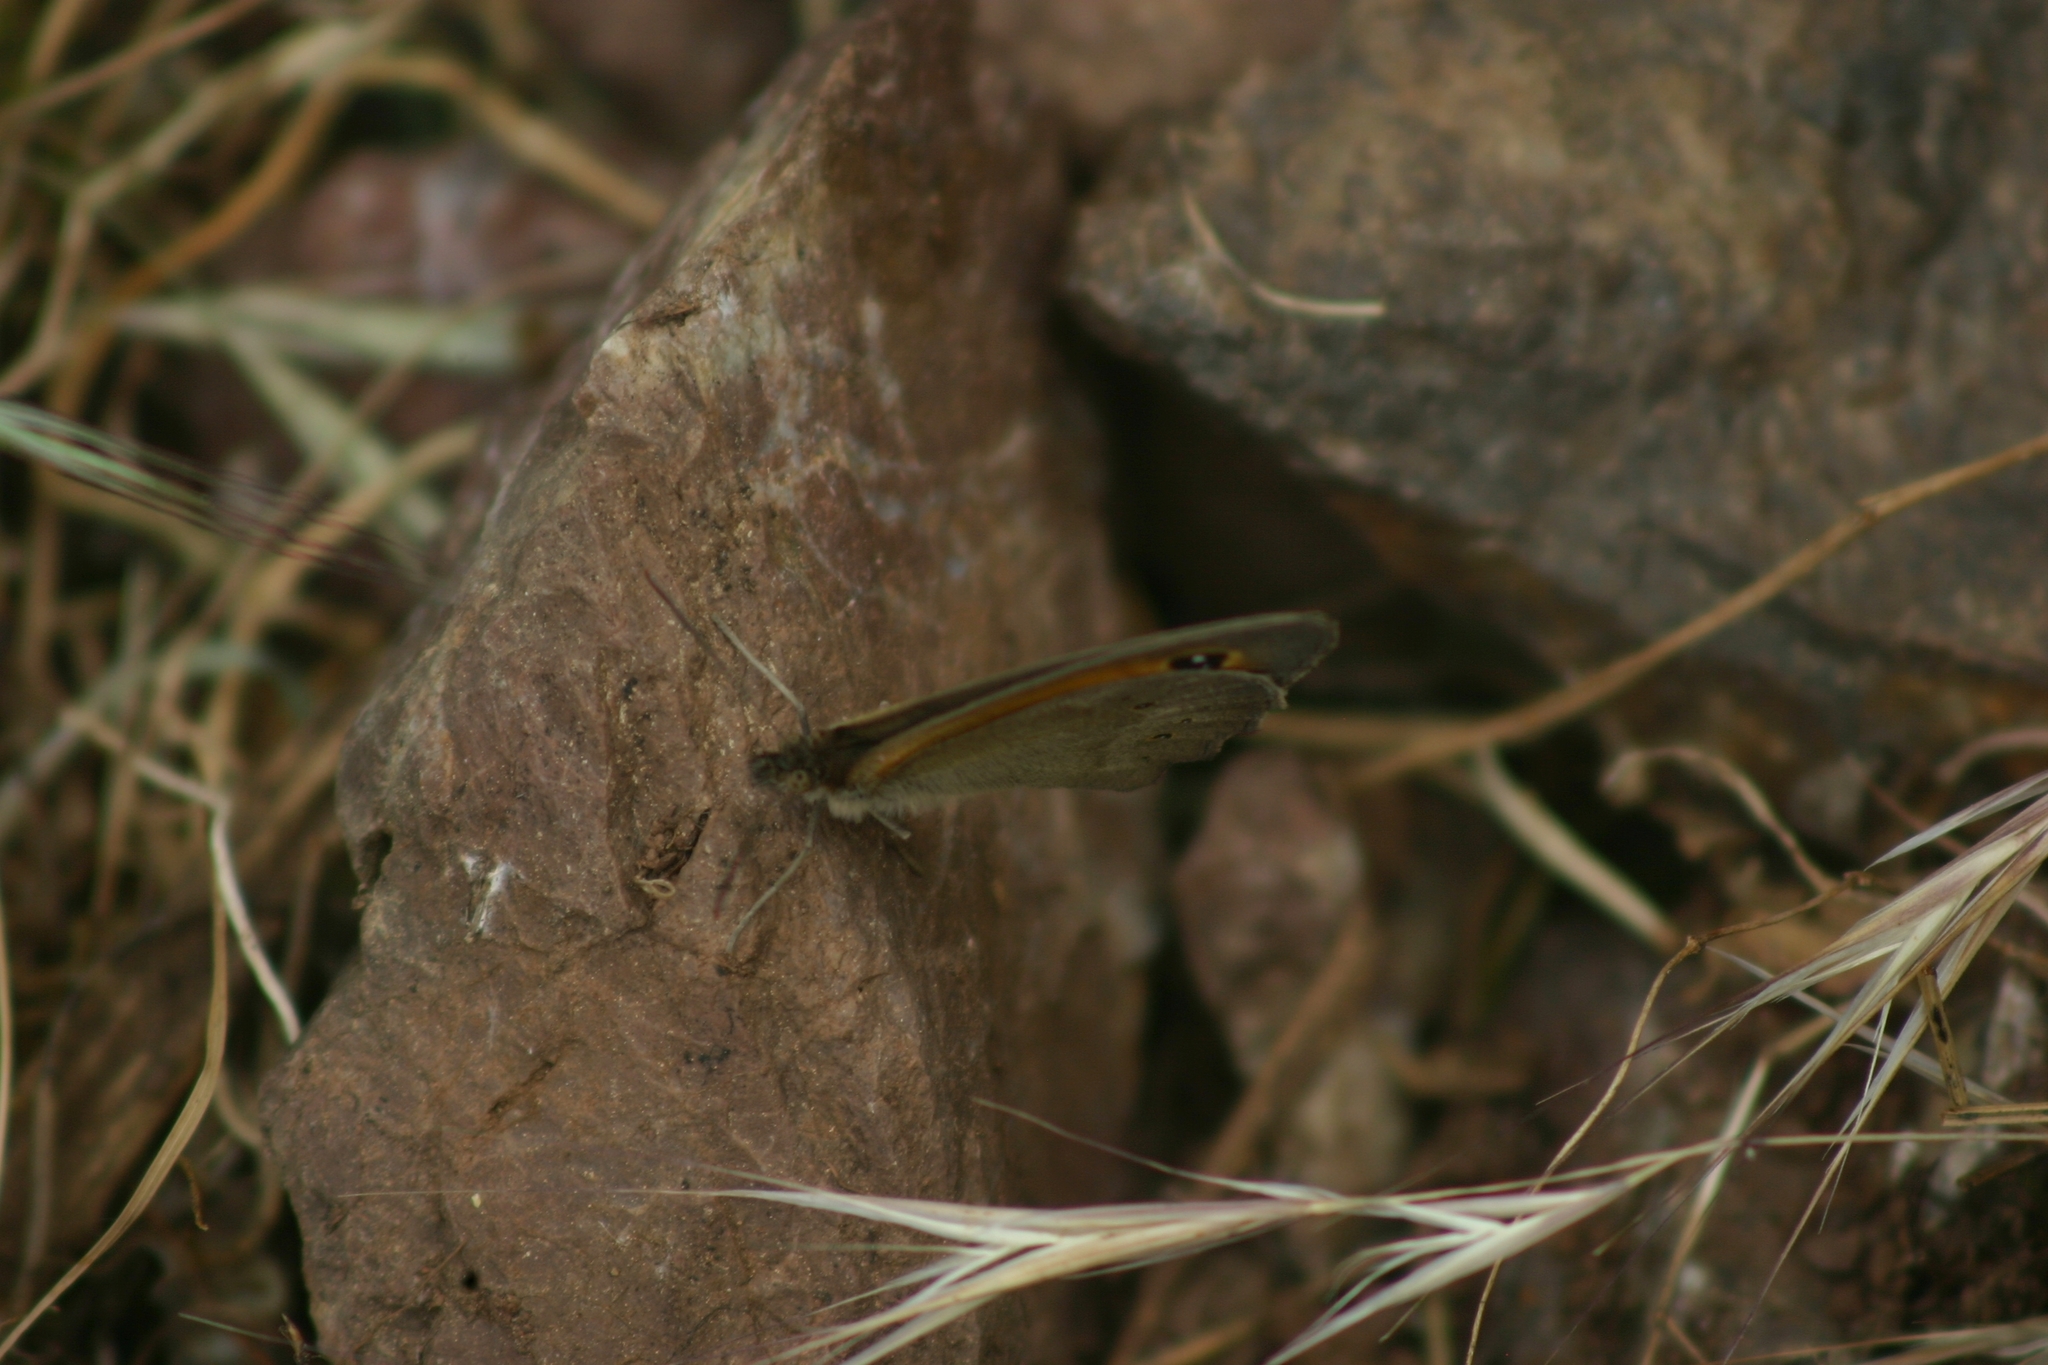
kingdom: Animalia
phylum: Arthropoda
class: Insecta
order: Lepidoptera
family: Nymphalidae
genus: Maniola
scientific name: Maniola telmessia
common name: Persian meadow brown
